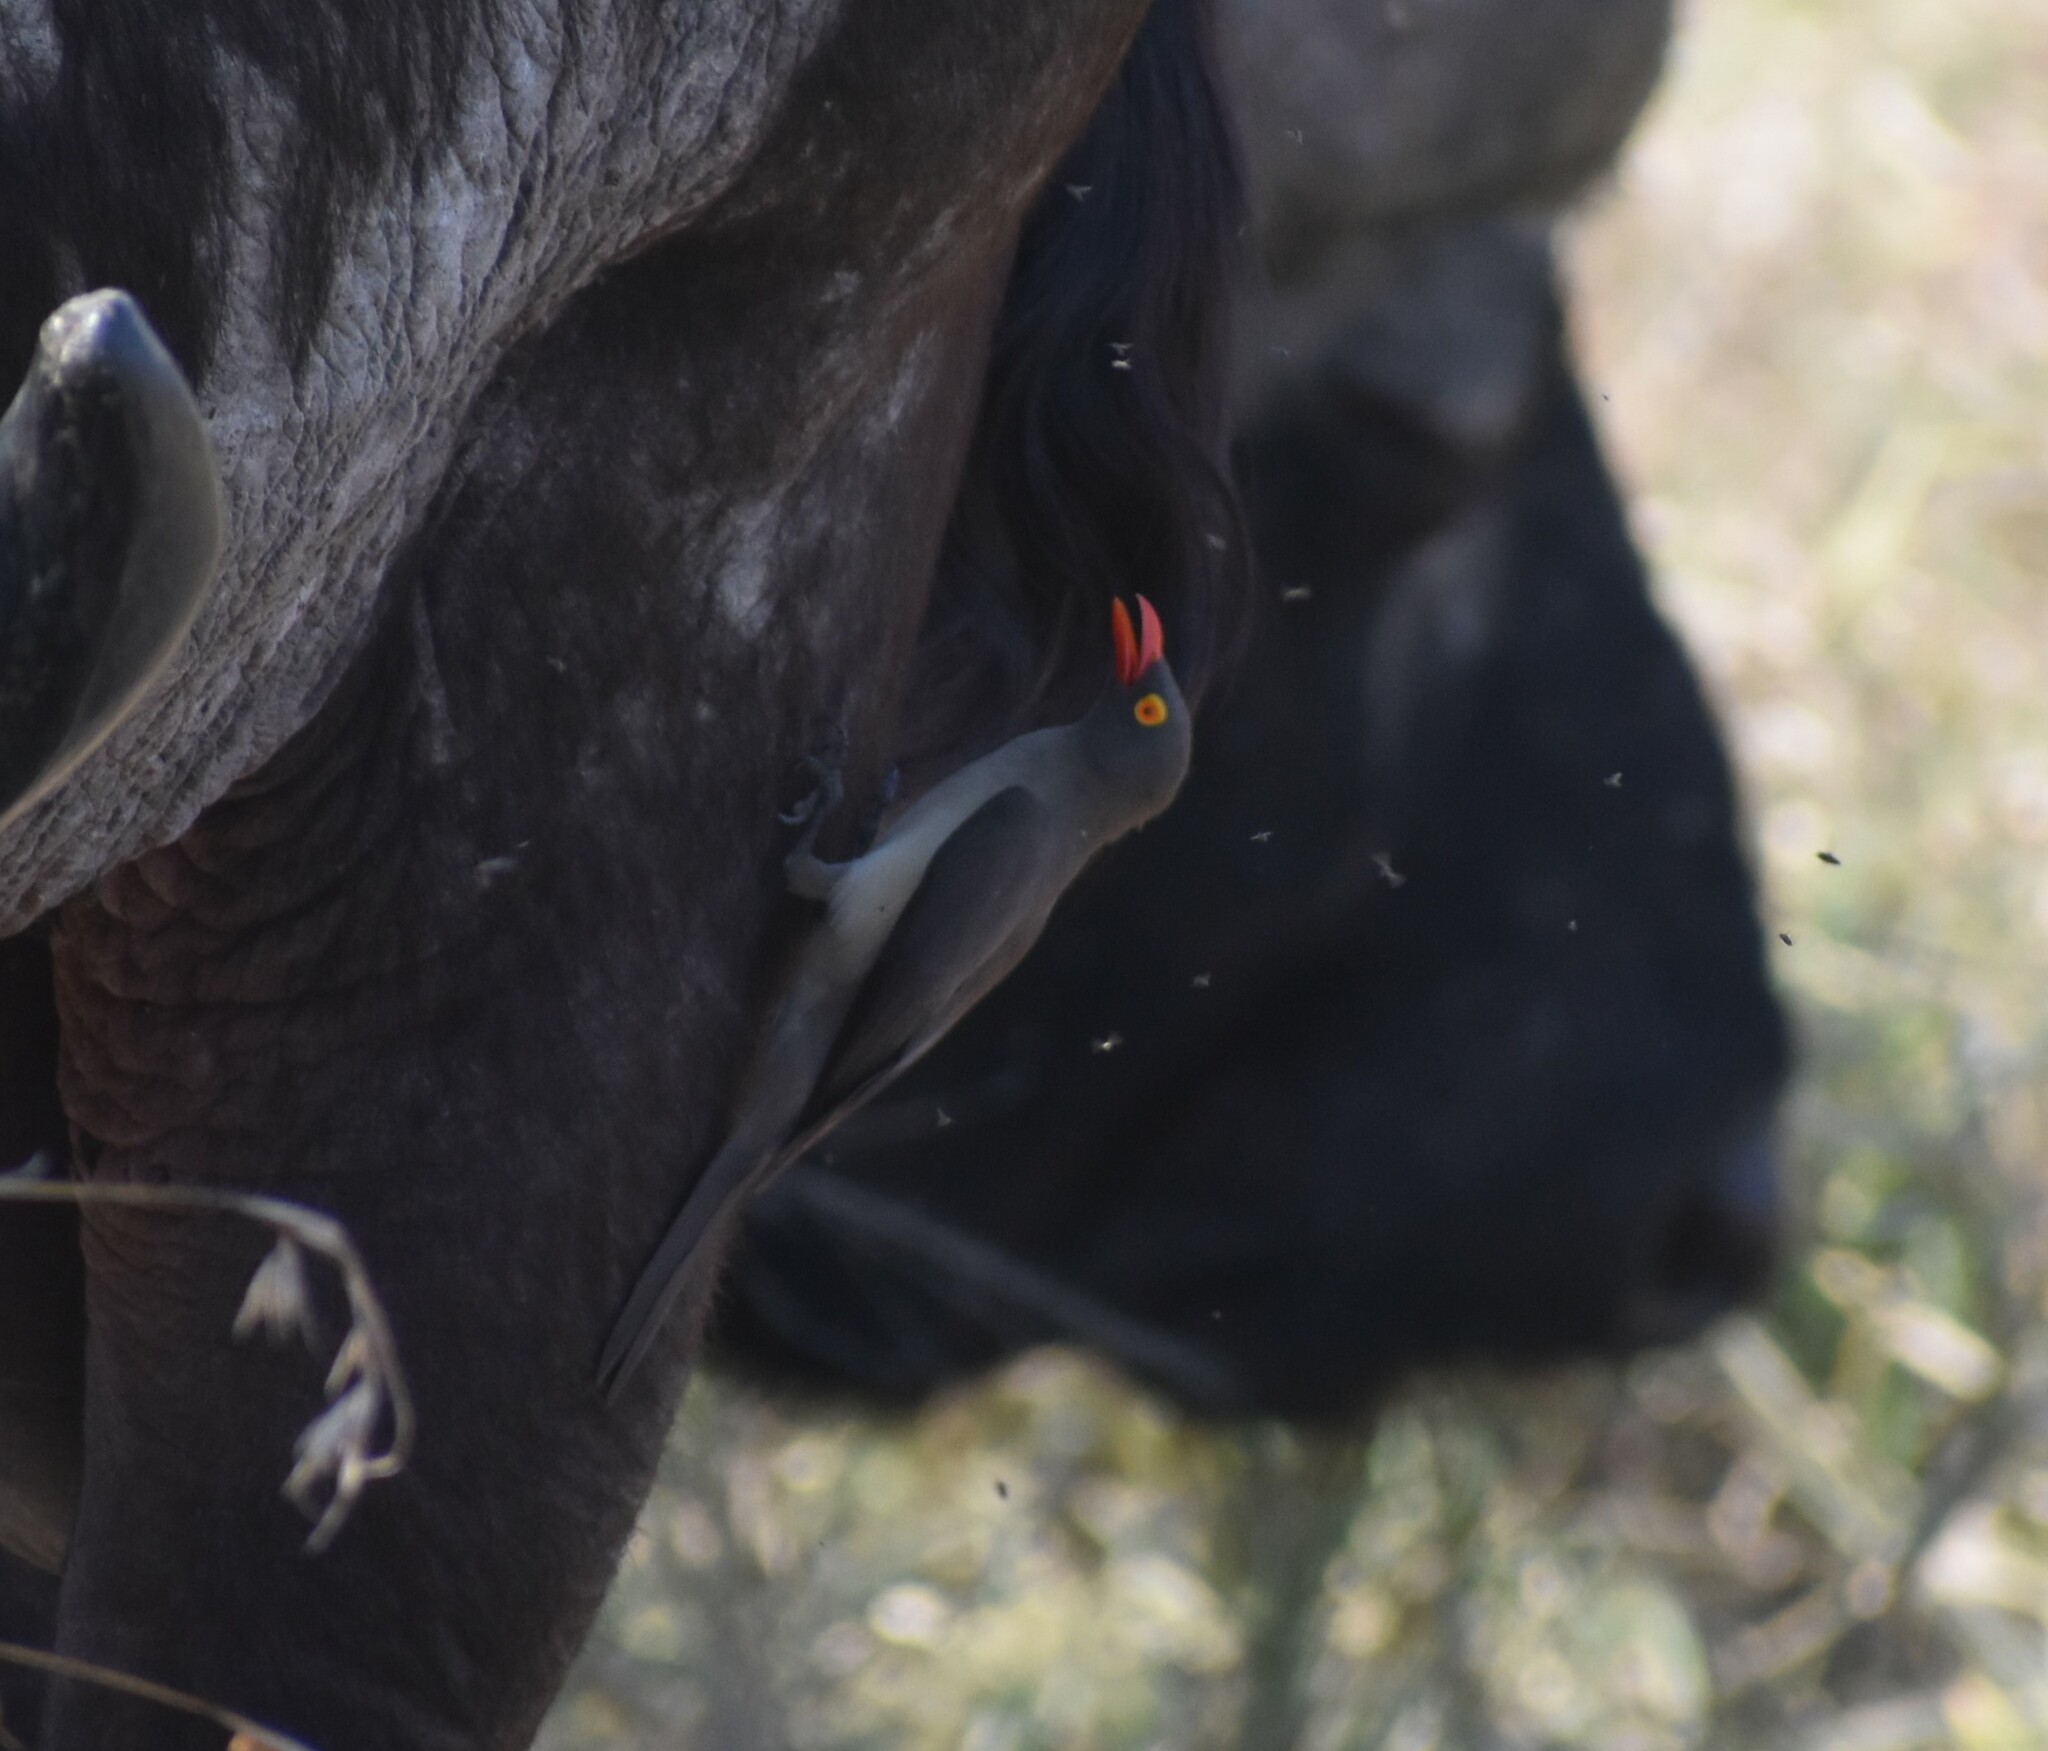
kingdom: Animalia
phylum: Chordata
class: Aves
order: Passeriformes
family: Buphagidae
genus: Buphagus
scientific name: Buphagus erythrorhynchus
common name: Red-billed oxpecker
